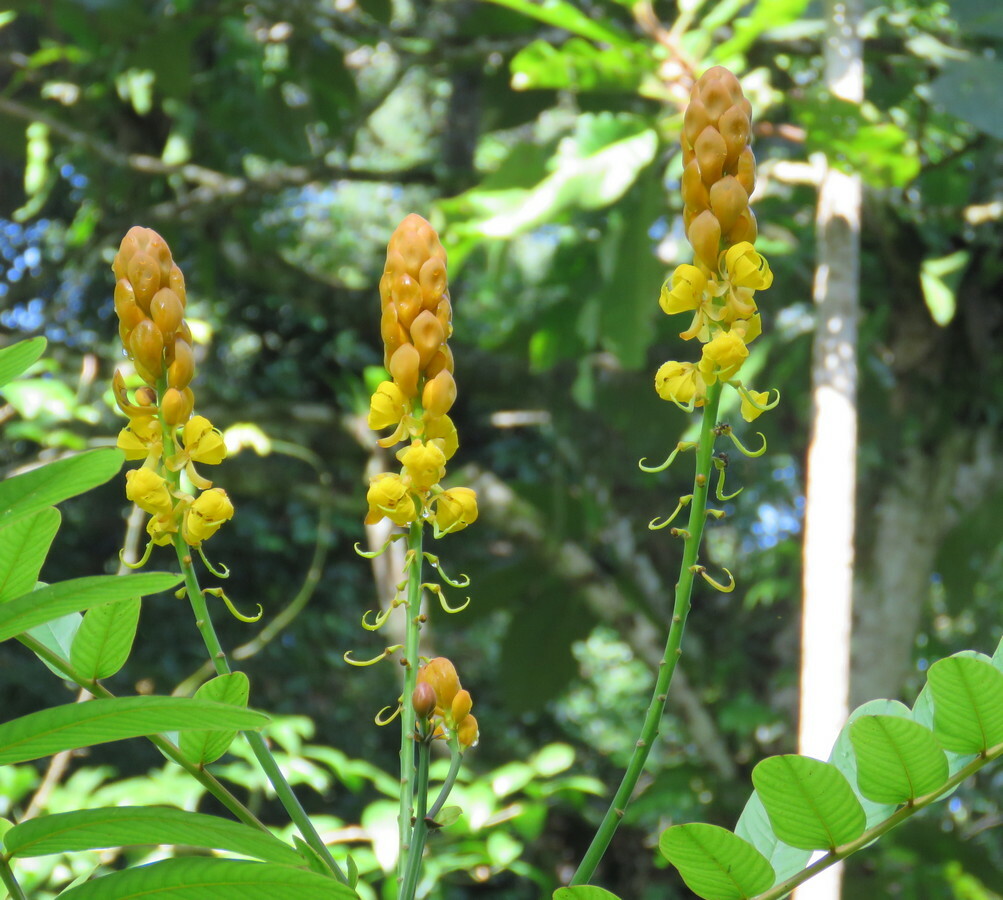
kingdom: Plantae
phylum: Tracheophyta
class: Magnoliopsida
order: Fabales
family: Fabaceae
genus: Senna
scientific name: Senna alata
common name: Emperor's candlesticks
